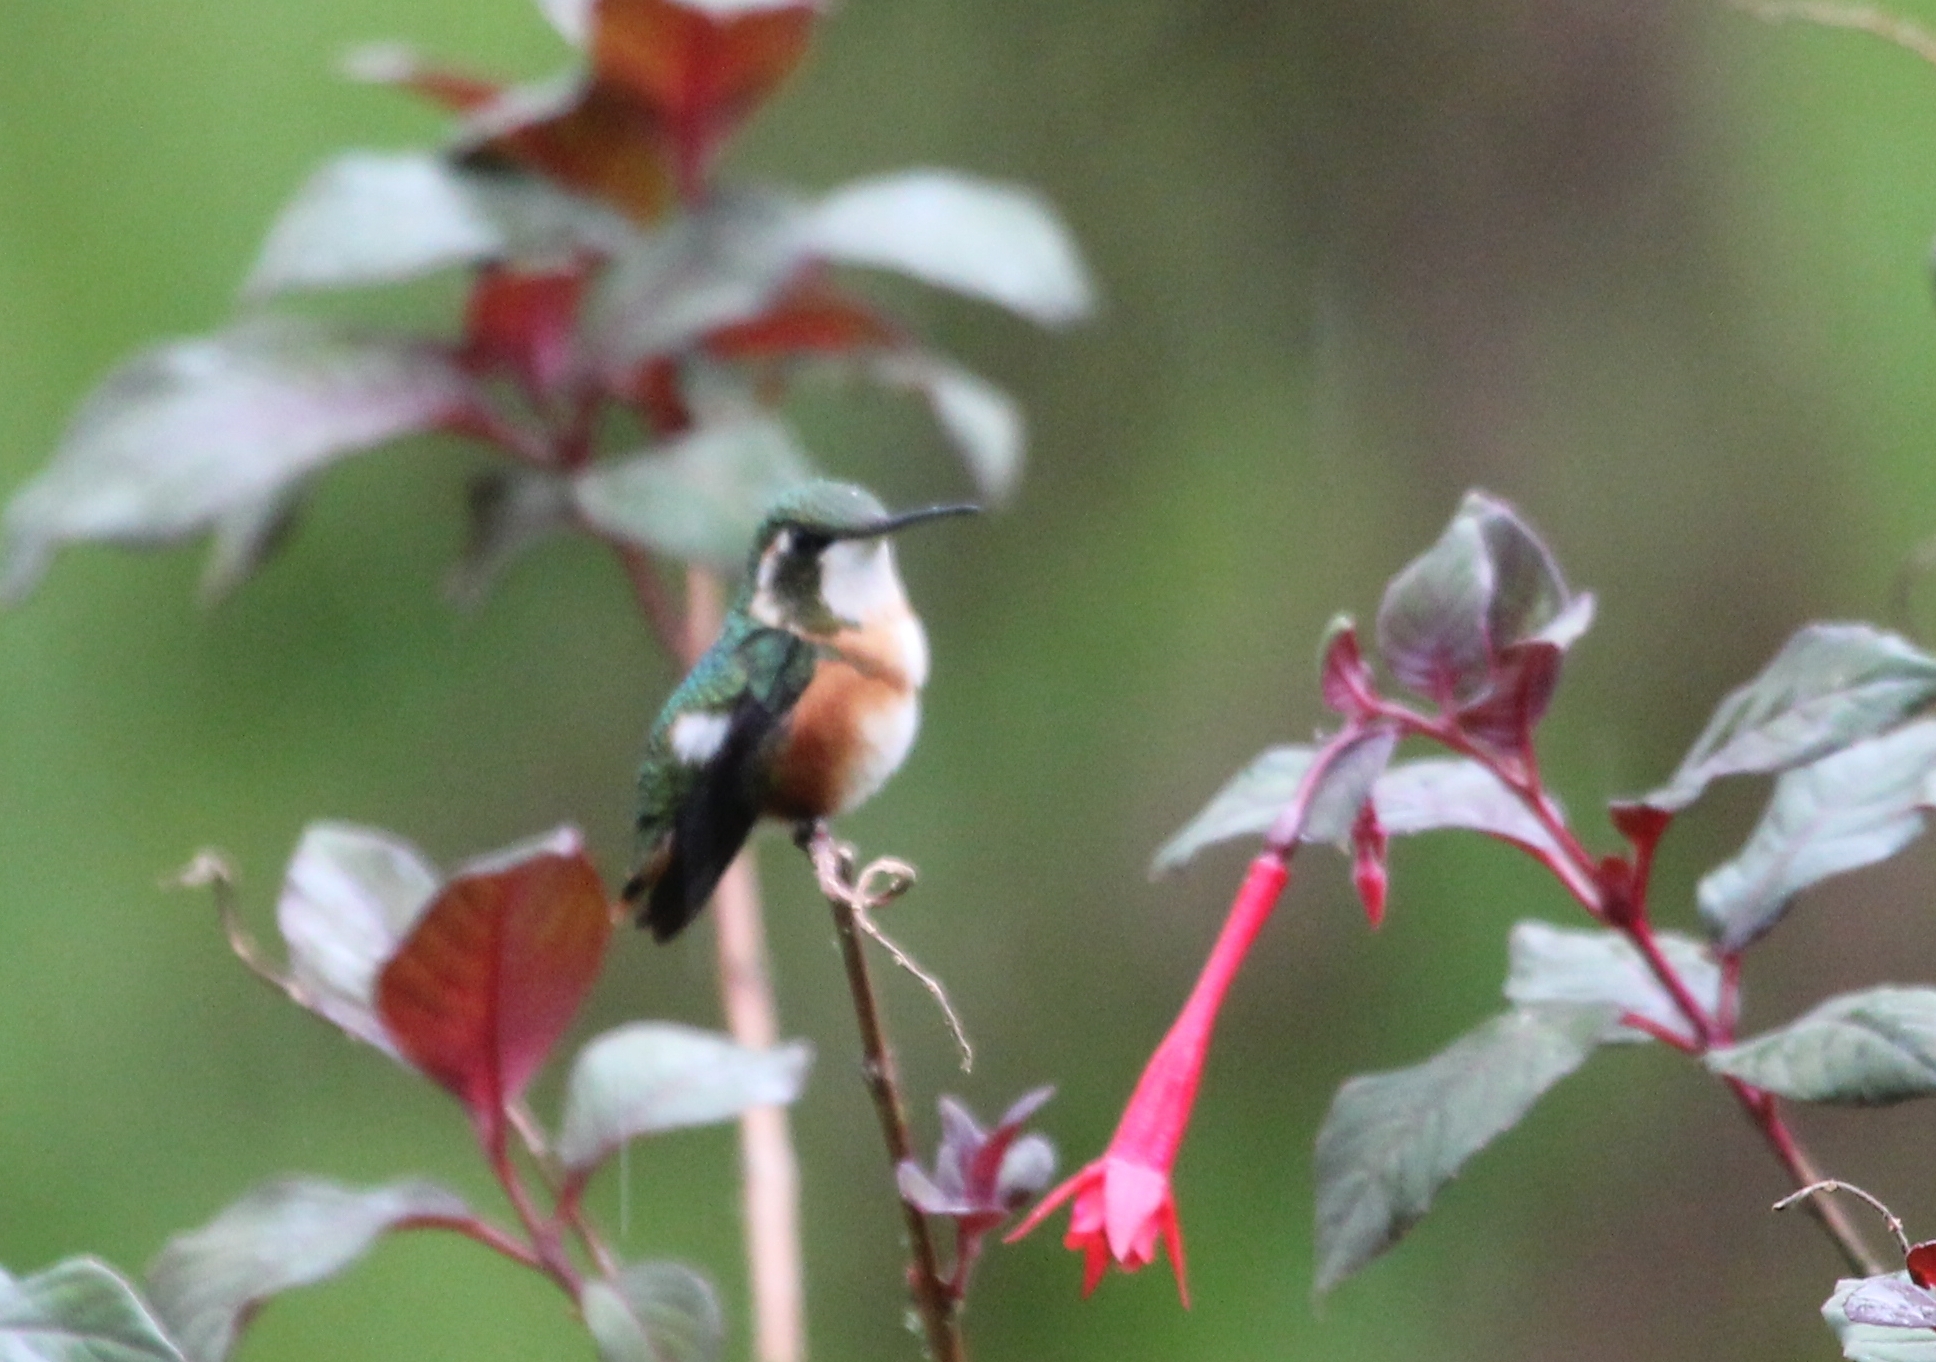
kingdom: Animalia
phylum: Chordata
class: Aves
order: Apodiformes
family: Trochilidae
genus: Chaetocercus
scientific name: Chaetocercus mulsant
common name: White-bellied woodstar
